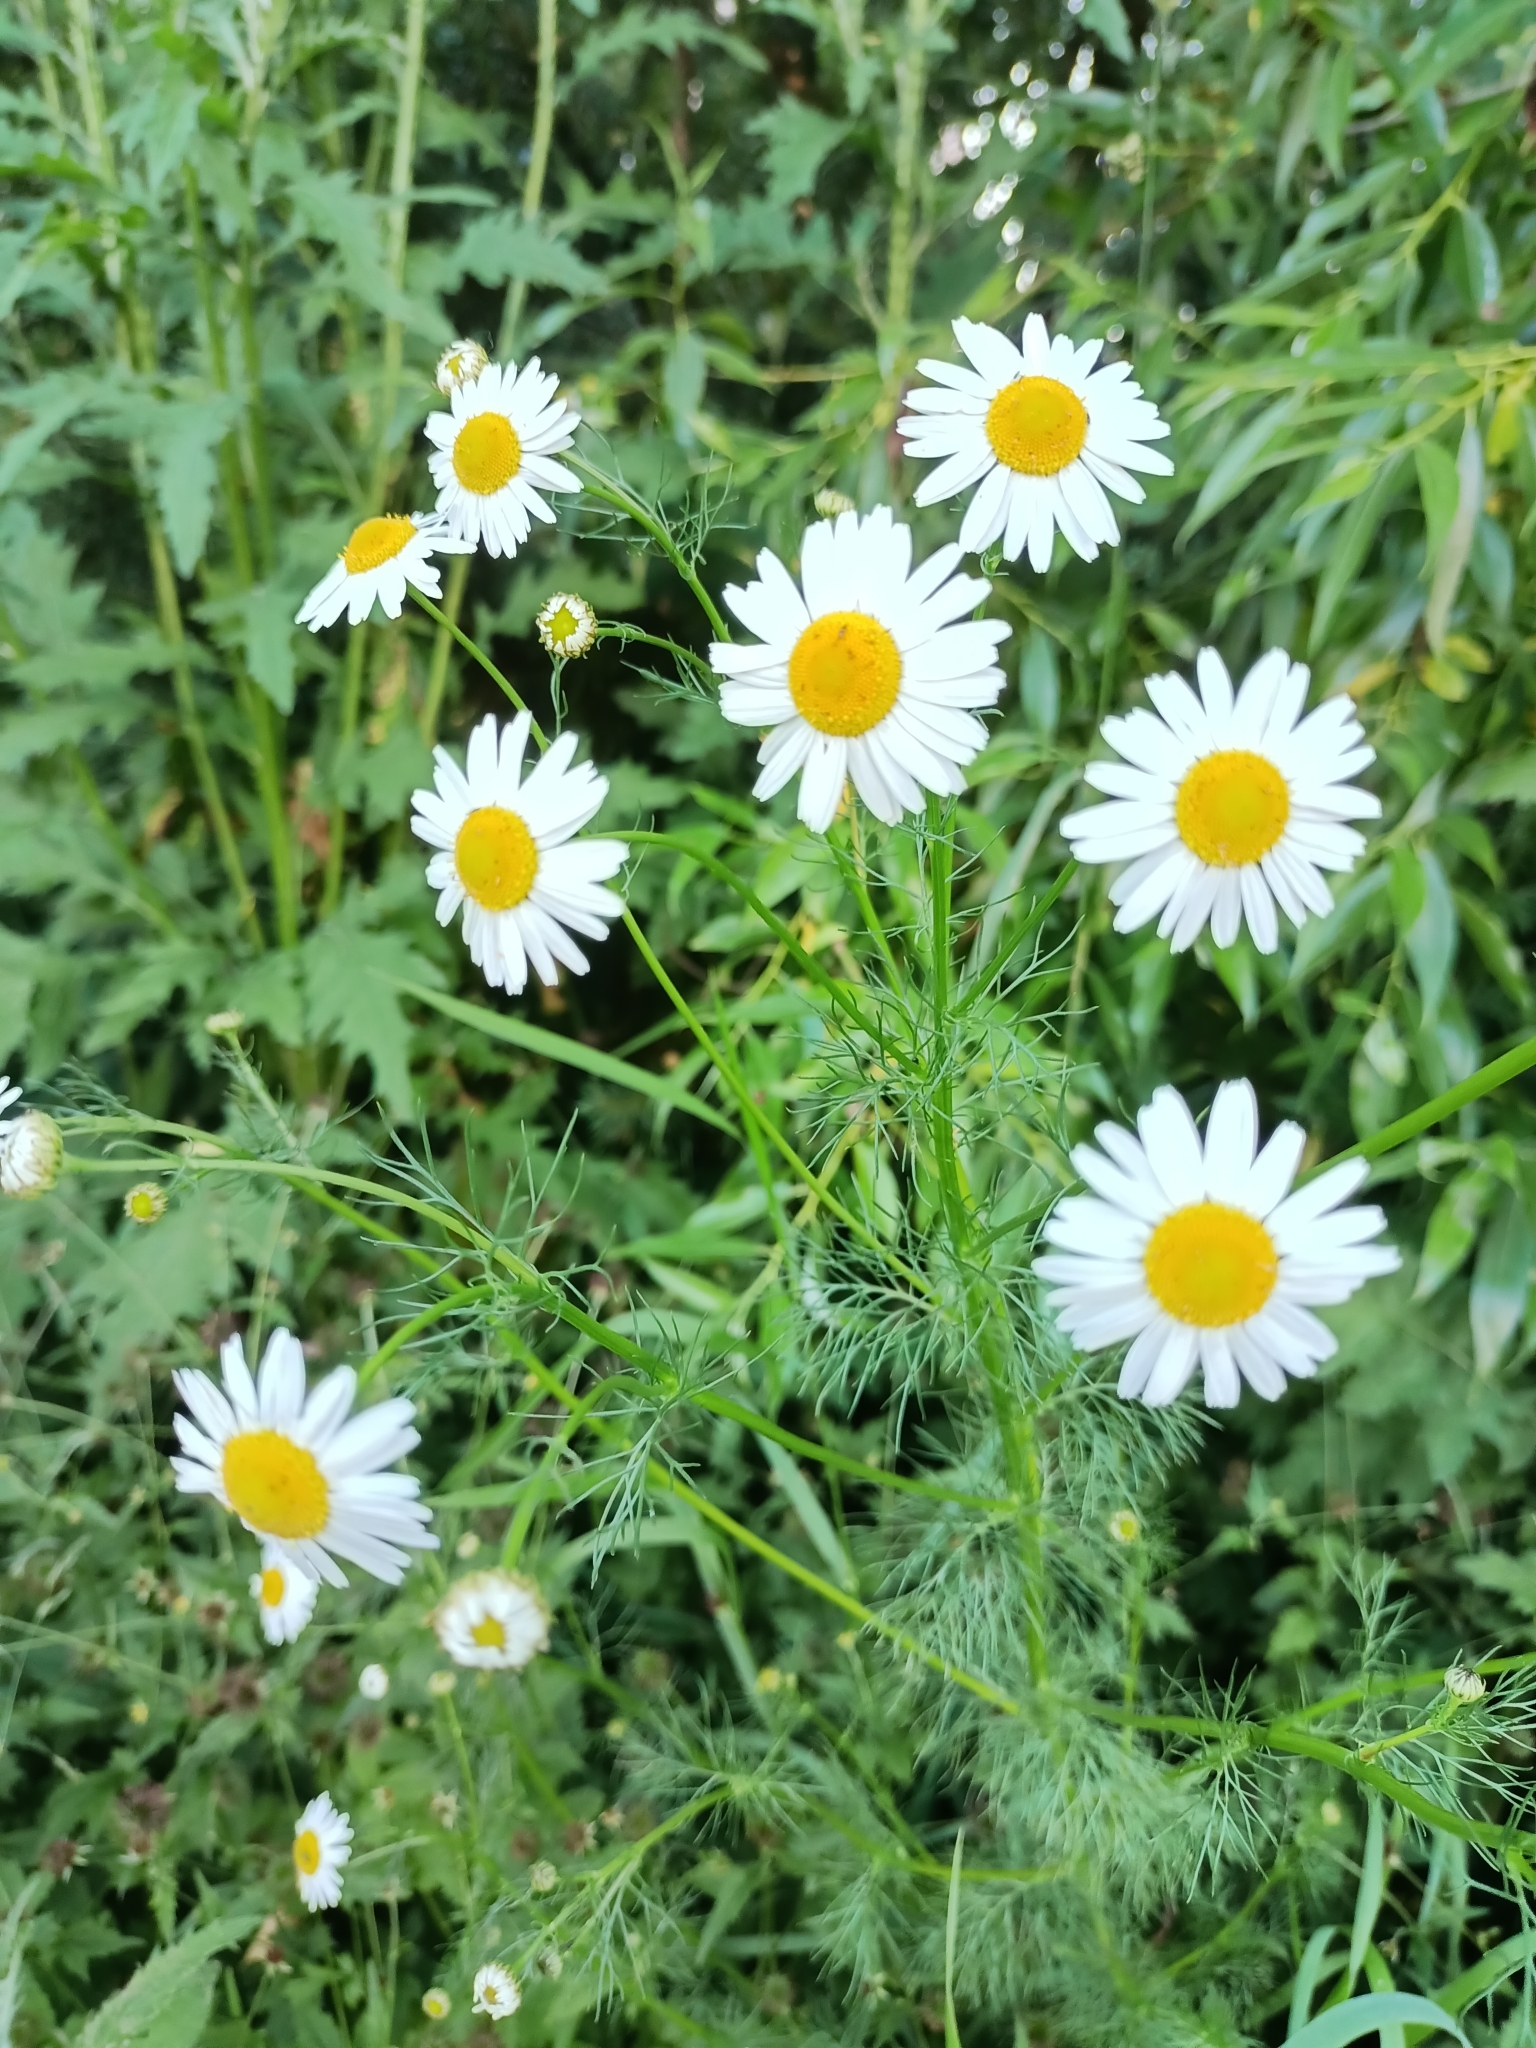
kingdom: Plantae
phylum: Tracheophyta
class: Magnoliopsida
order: Asterales
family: Asteraceae
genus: Tripleurospermum
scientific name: Tripleurospermum inodorum
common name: Scentless mayweed
